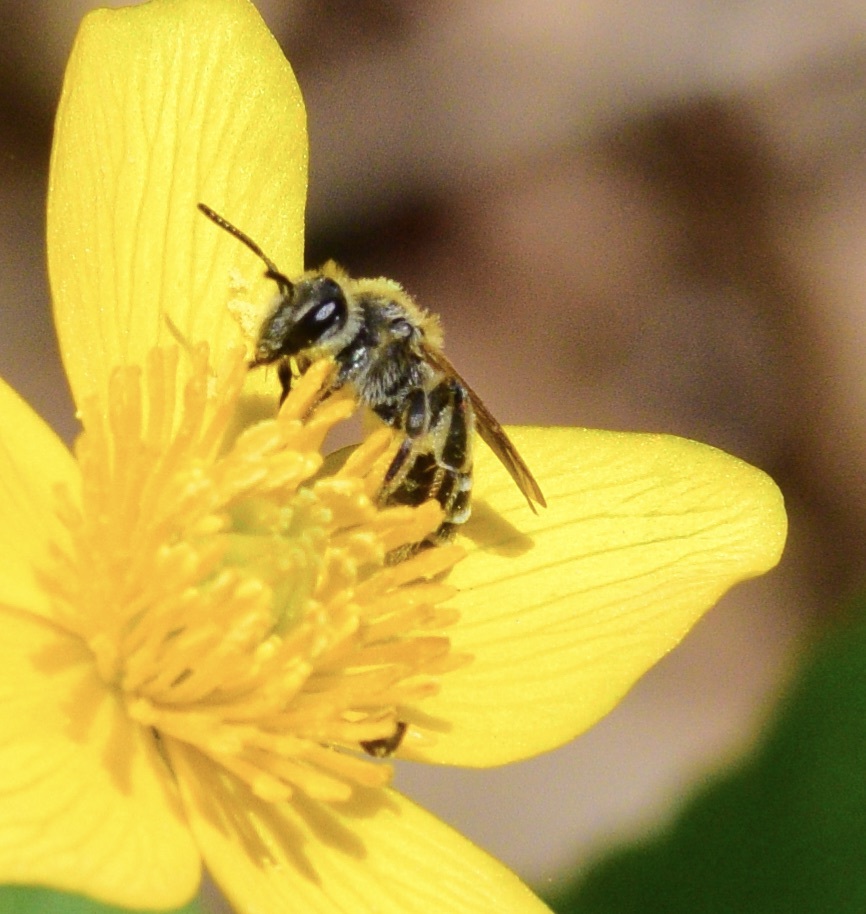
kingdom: Animalia
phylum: Arthropoda
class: Insecta
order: Hymenoptera
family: Andrenidae
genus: Andrena
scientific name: Andrena nasonii
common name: Nason's mining bee
